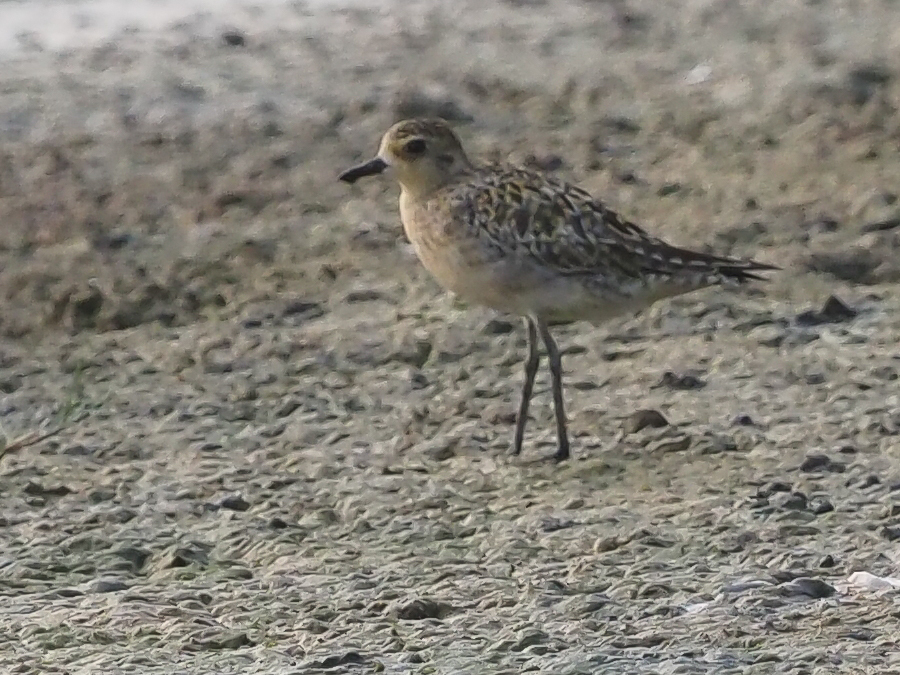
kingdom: Animalia
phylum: Chordata
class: Aves
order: Charadriiformes
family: Charadriidae
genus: Pluvialis
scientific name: Pluvialis fulva
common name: Pacific golden plover
